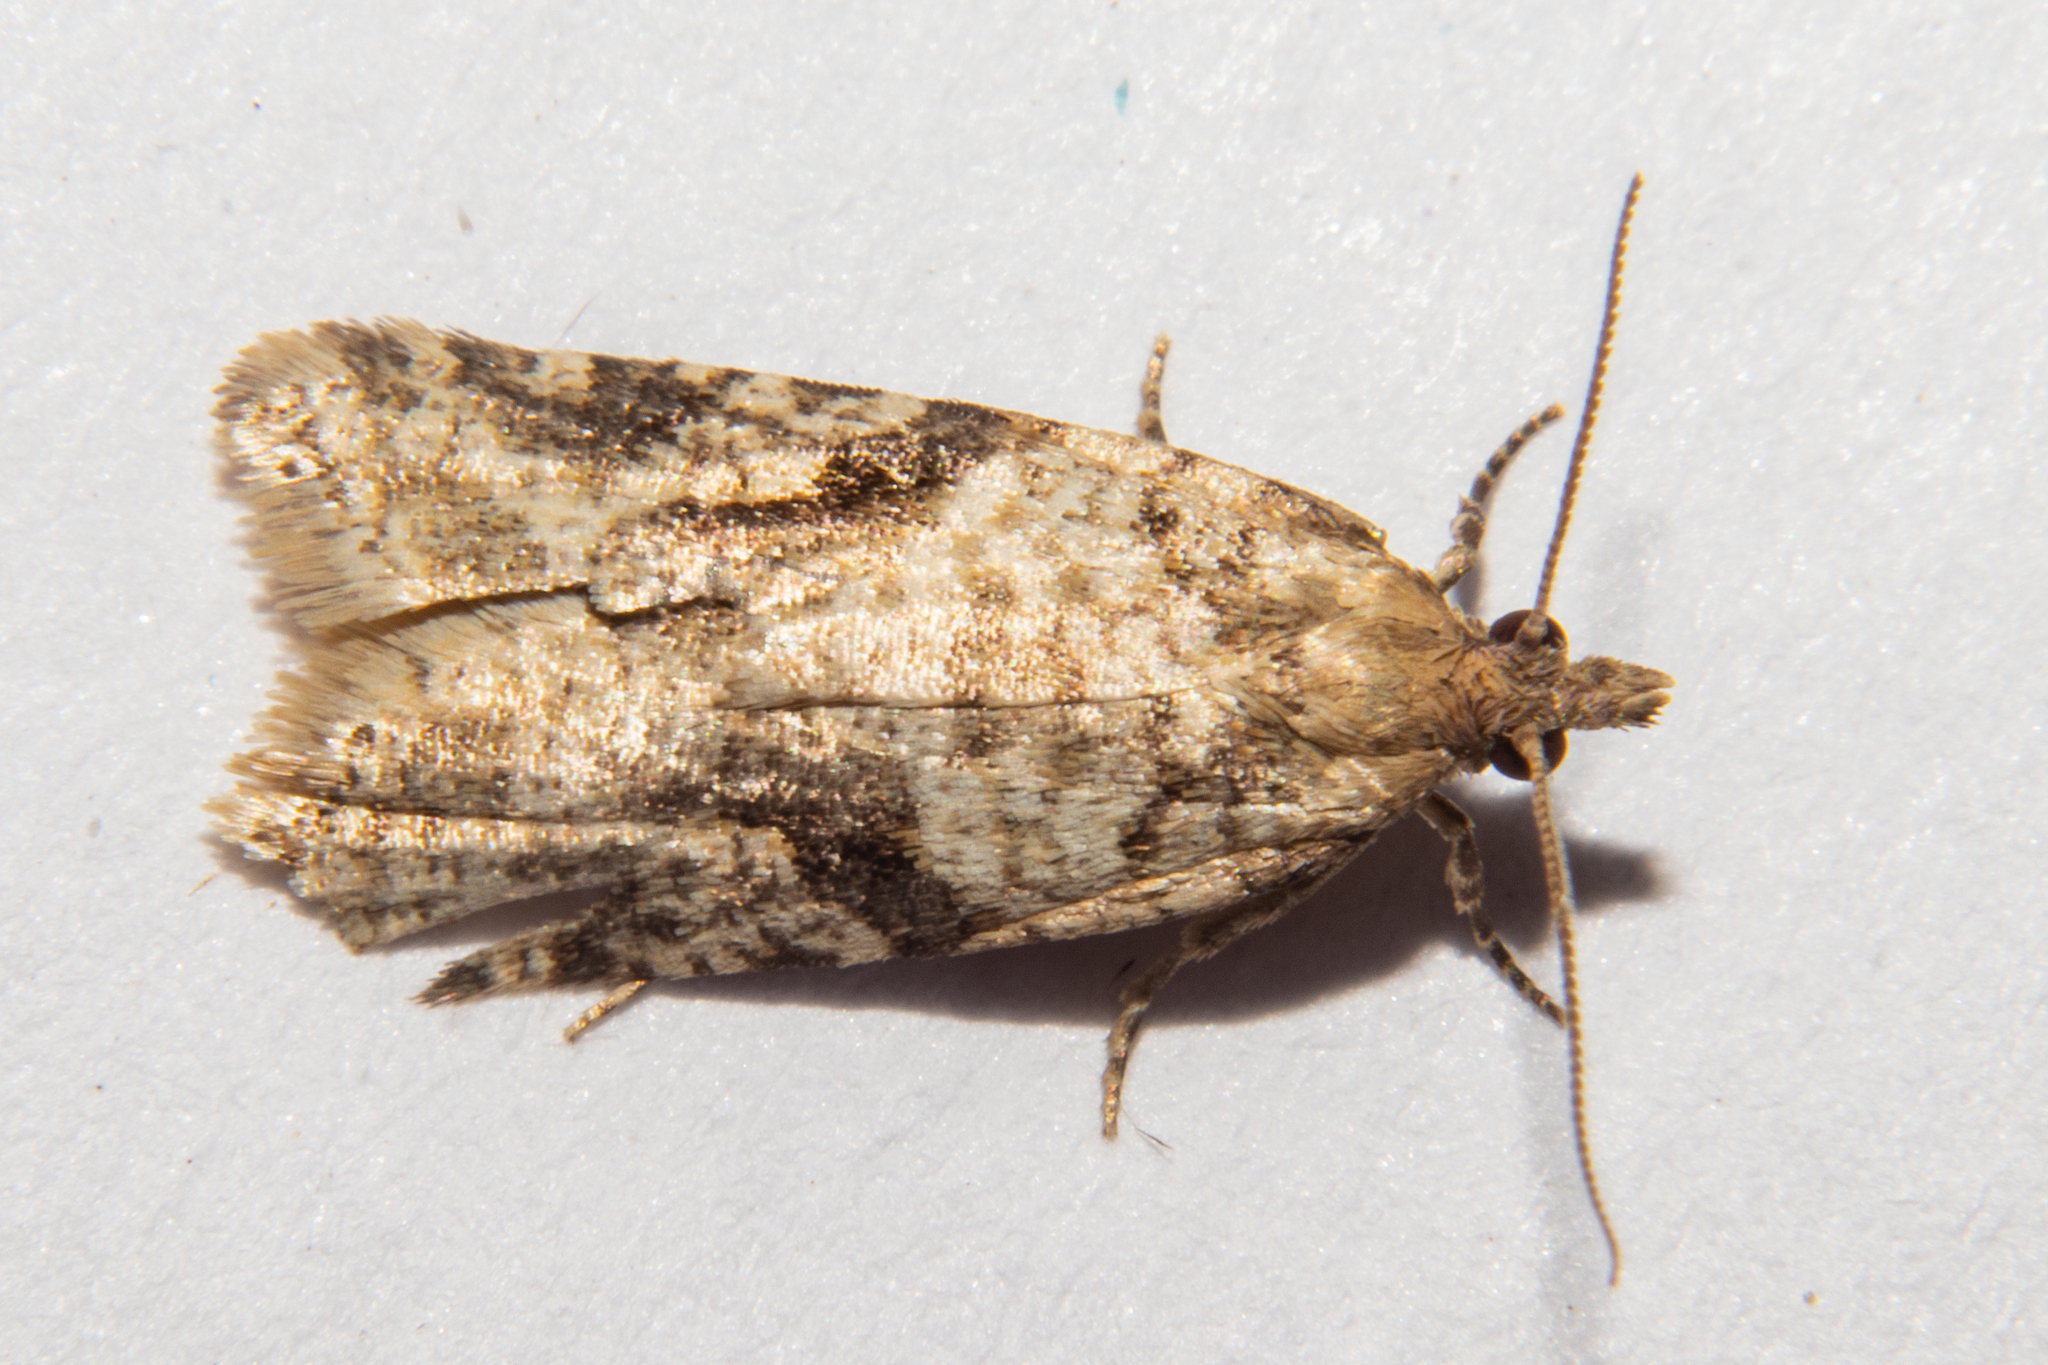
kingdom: Animalia
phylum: Arthropoda
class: Insecta
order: Lepidoptera
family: Tortricidae
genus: Capua
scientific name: Capua semiferana
